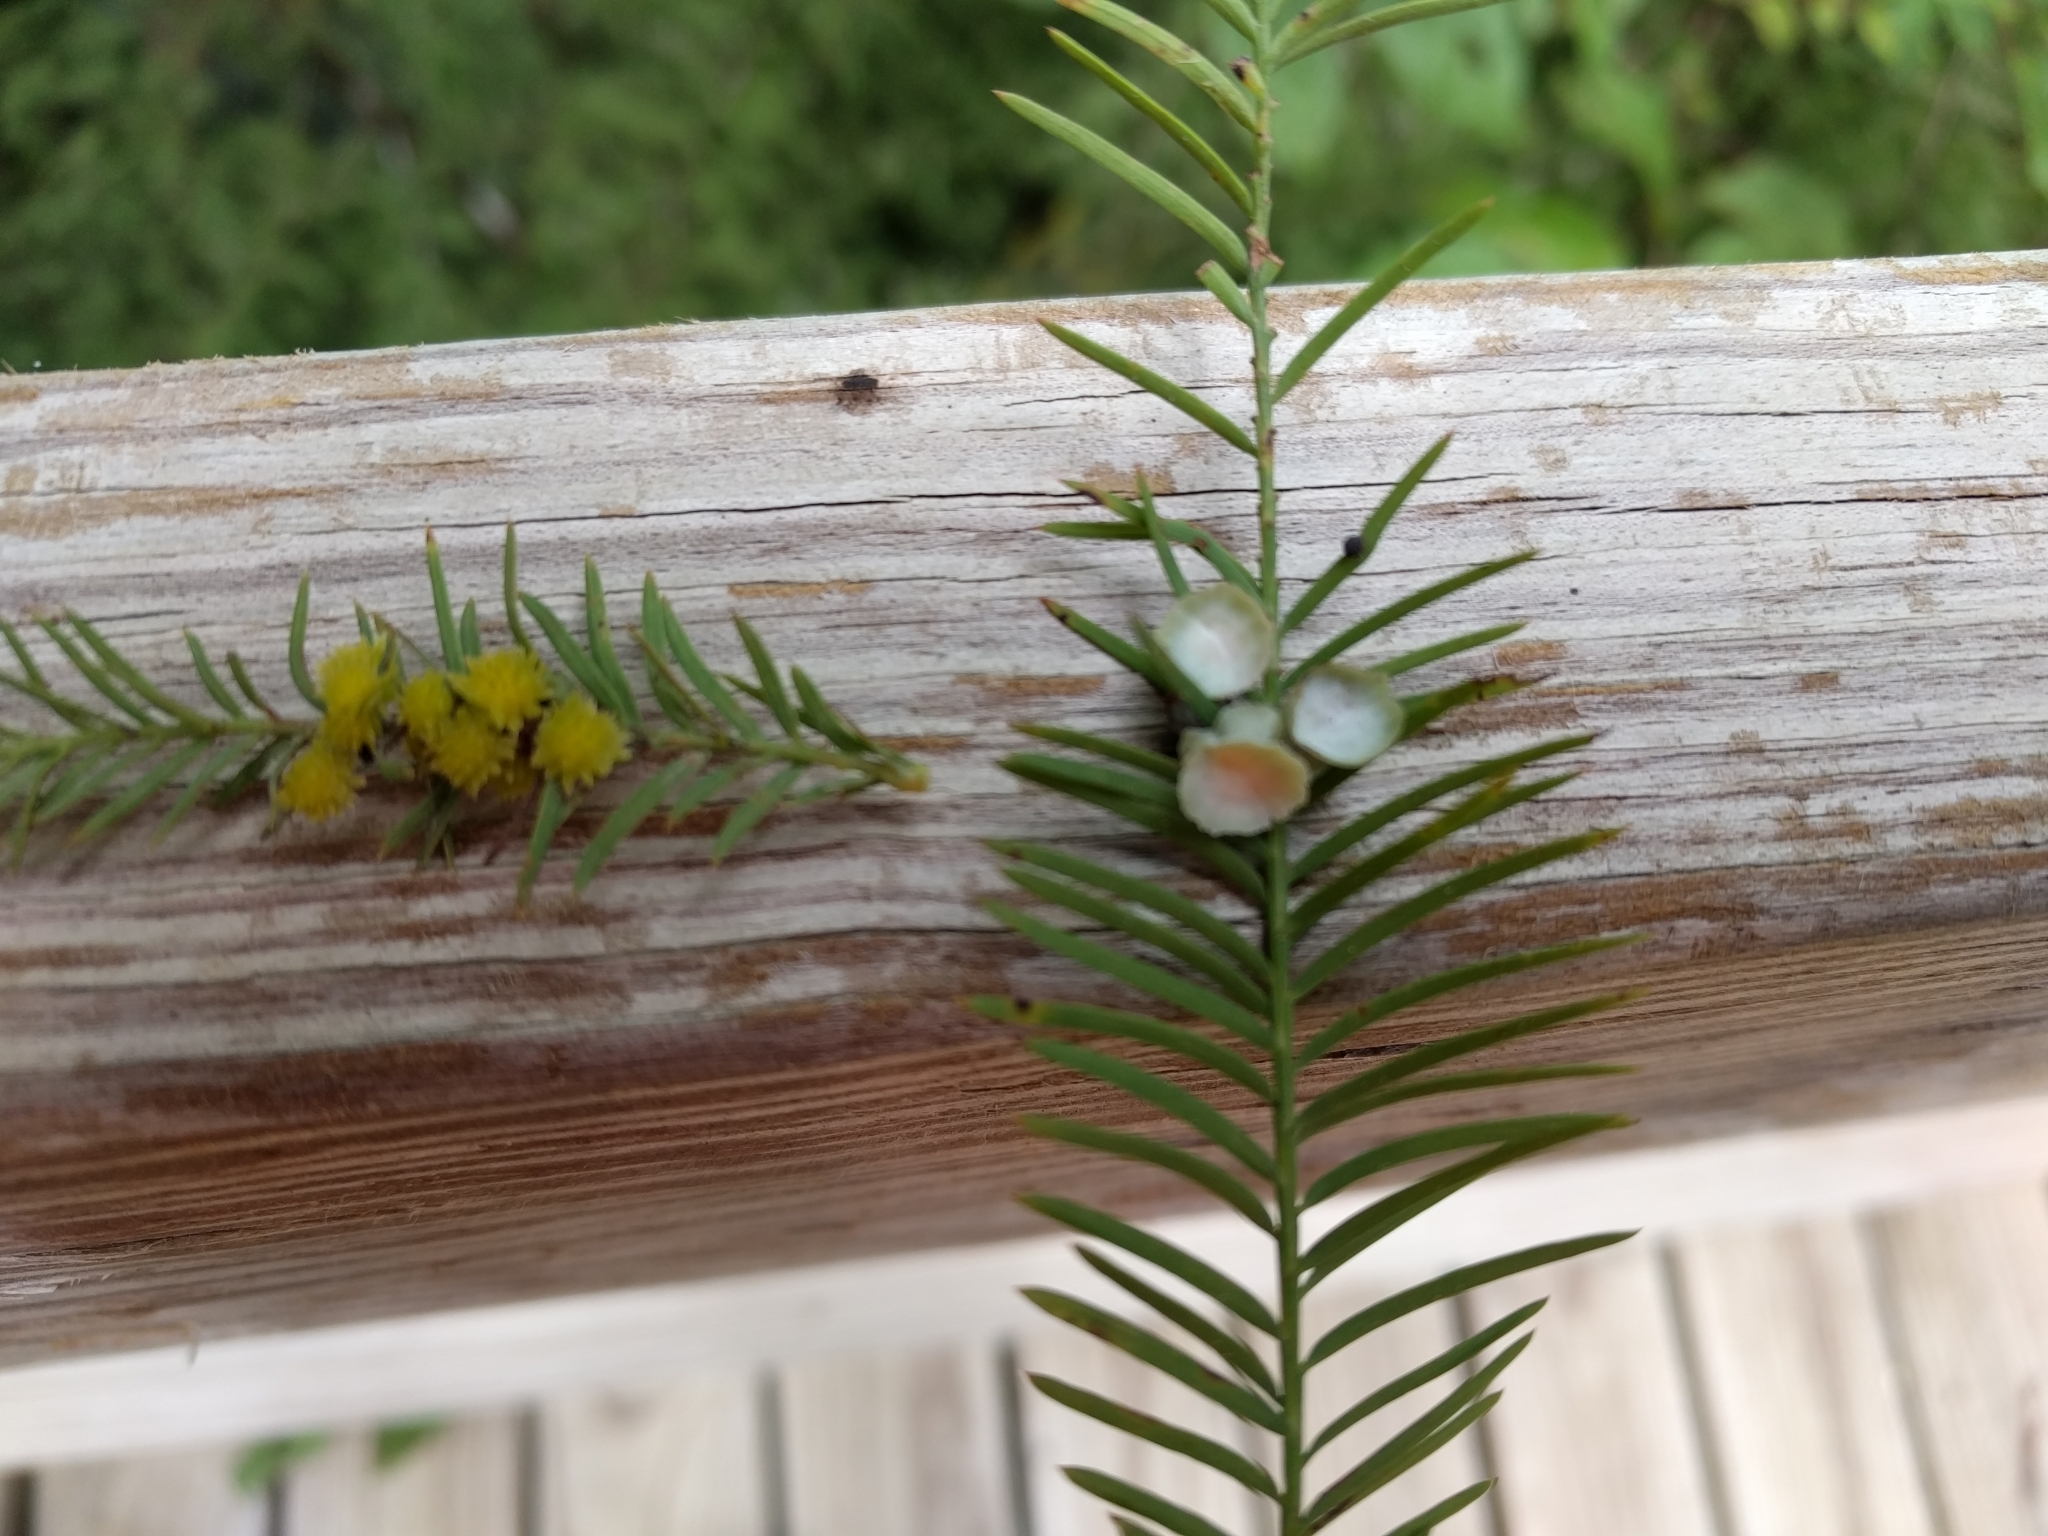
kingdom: Animalia
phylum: Arthropoda
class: Insecta
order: Diptera
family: Cecidomyiidae
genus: Taxodiomyia
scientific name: Taxodiomyia cupressi
